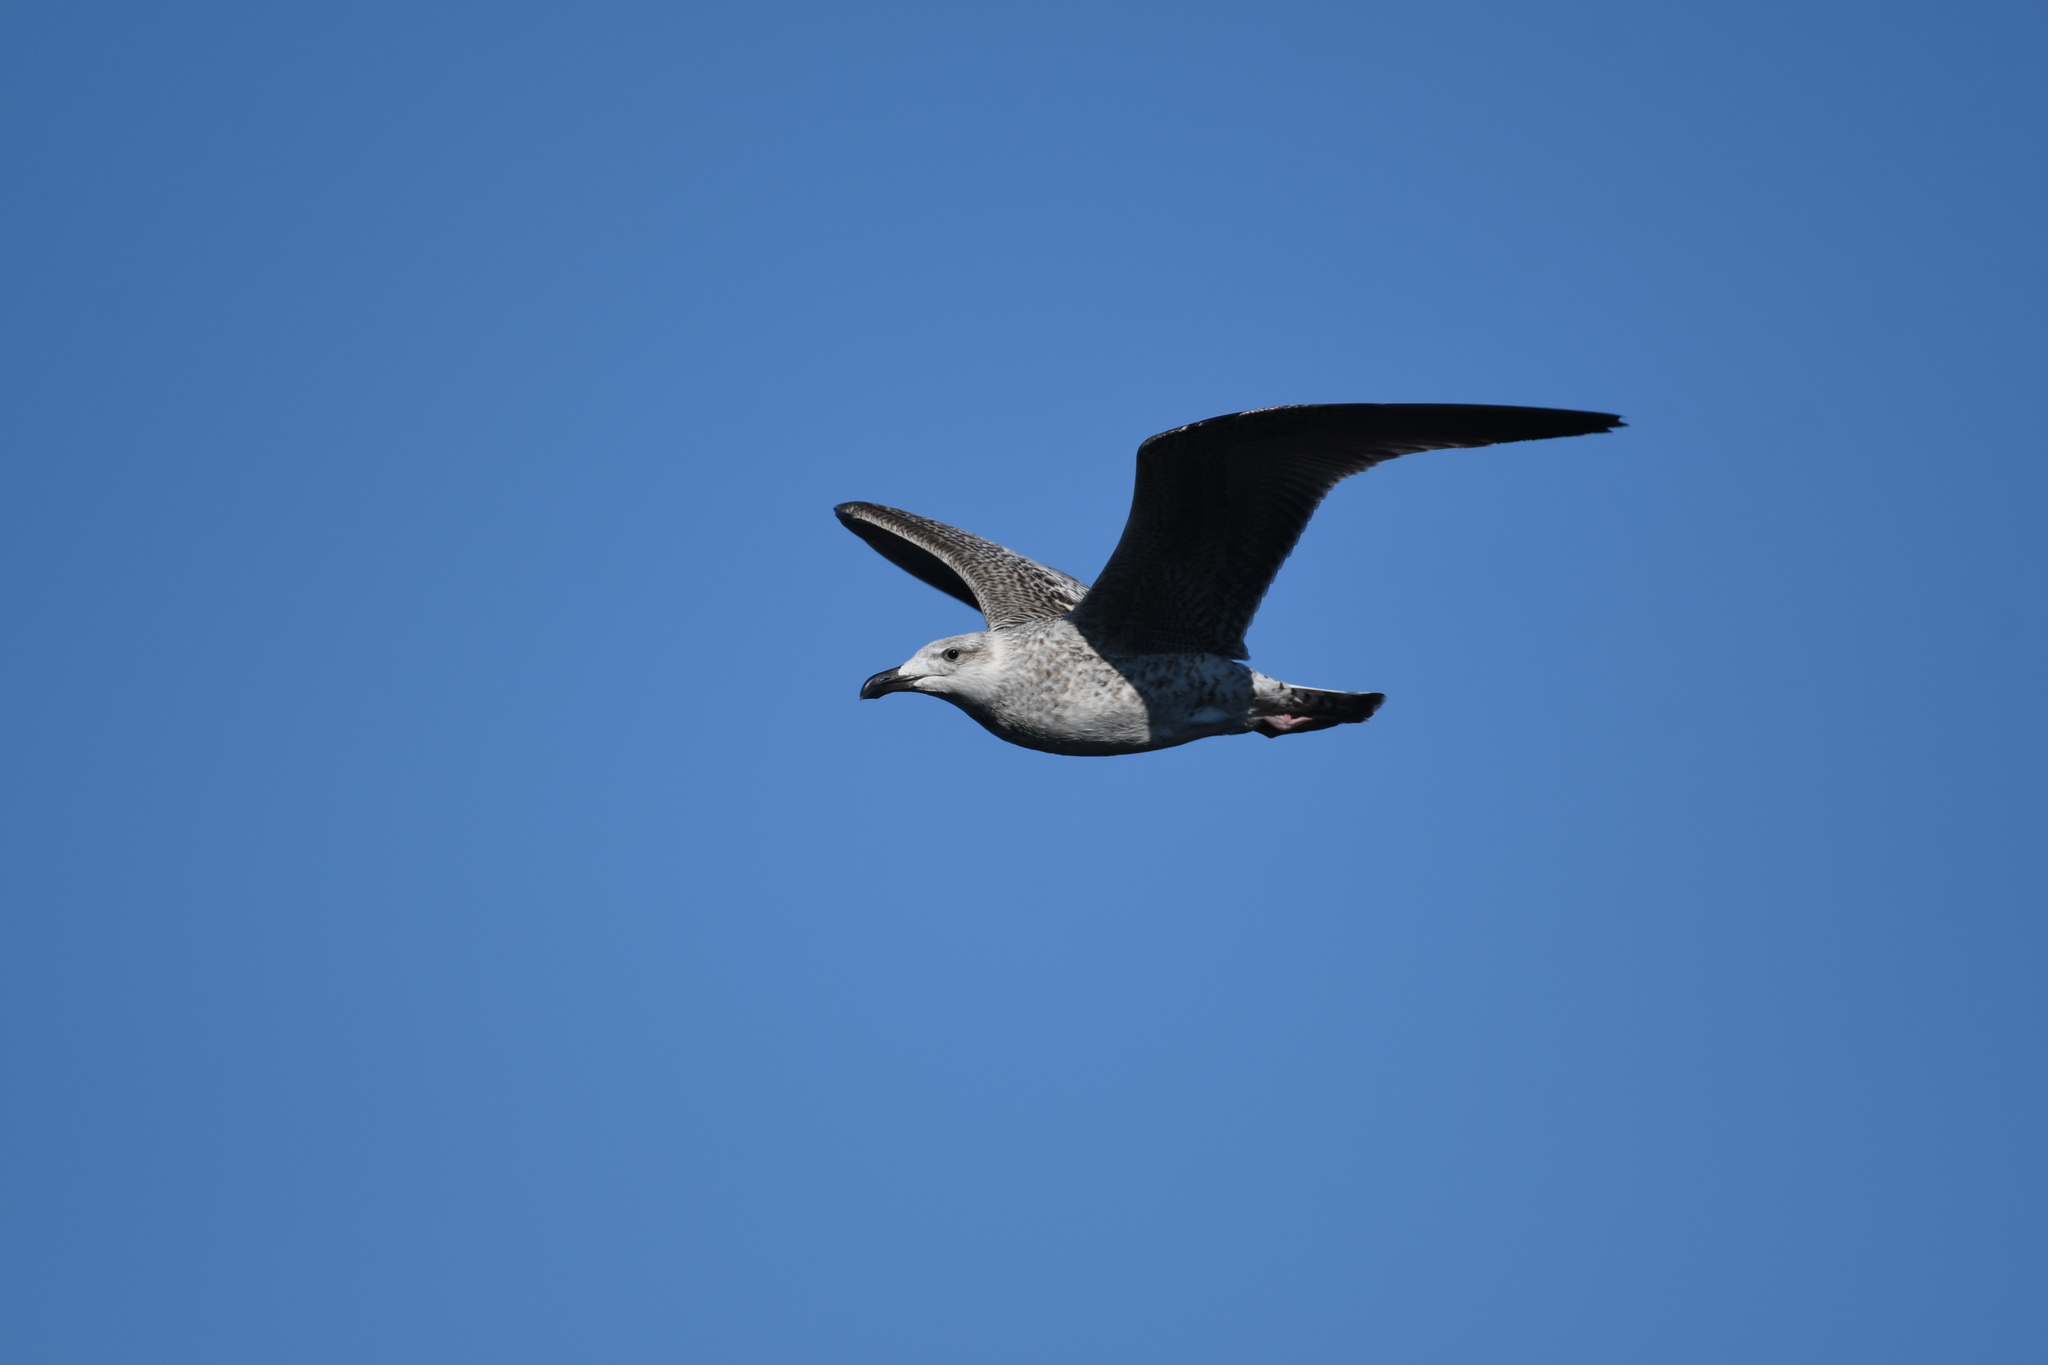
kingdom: Animalia
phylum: Chordata
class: Aves
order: Charadriiformes
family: Laridae
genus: Larus
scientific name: Larus marinus
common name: Great black-backed gull
